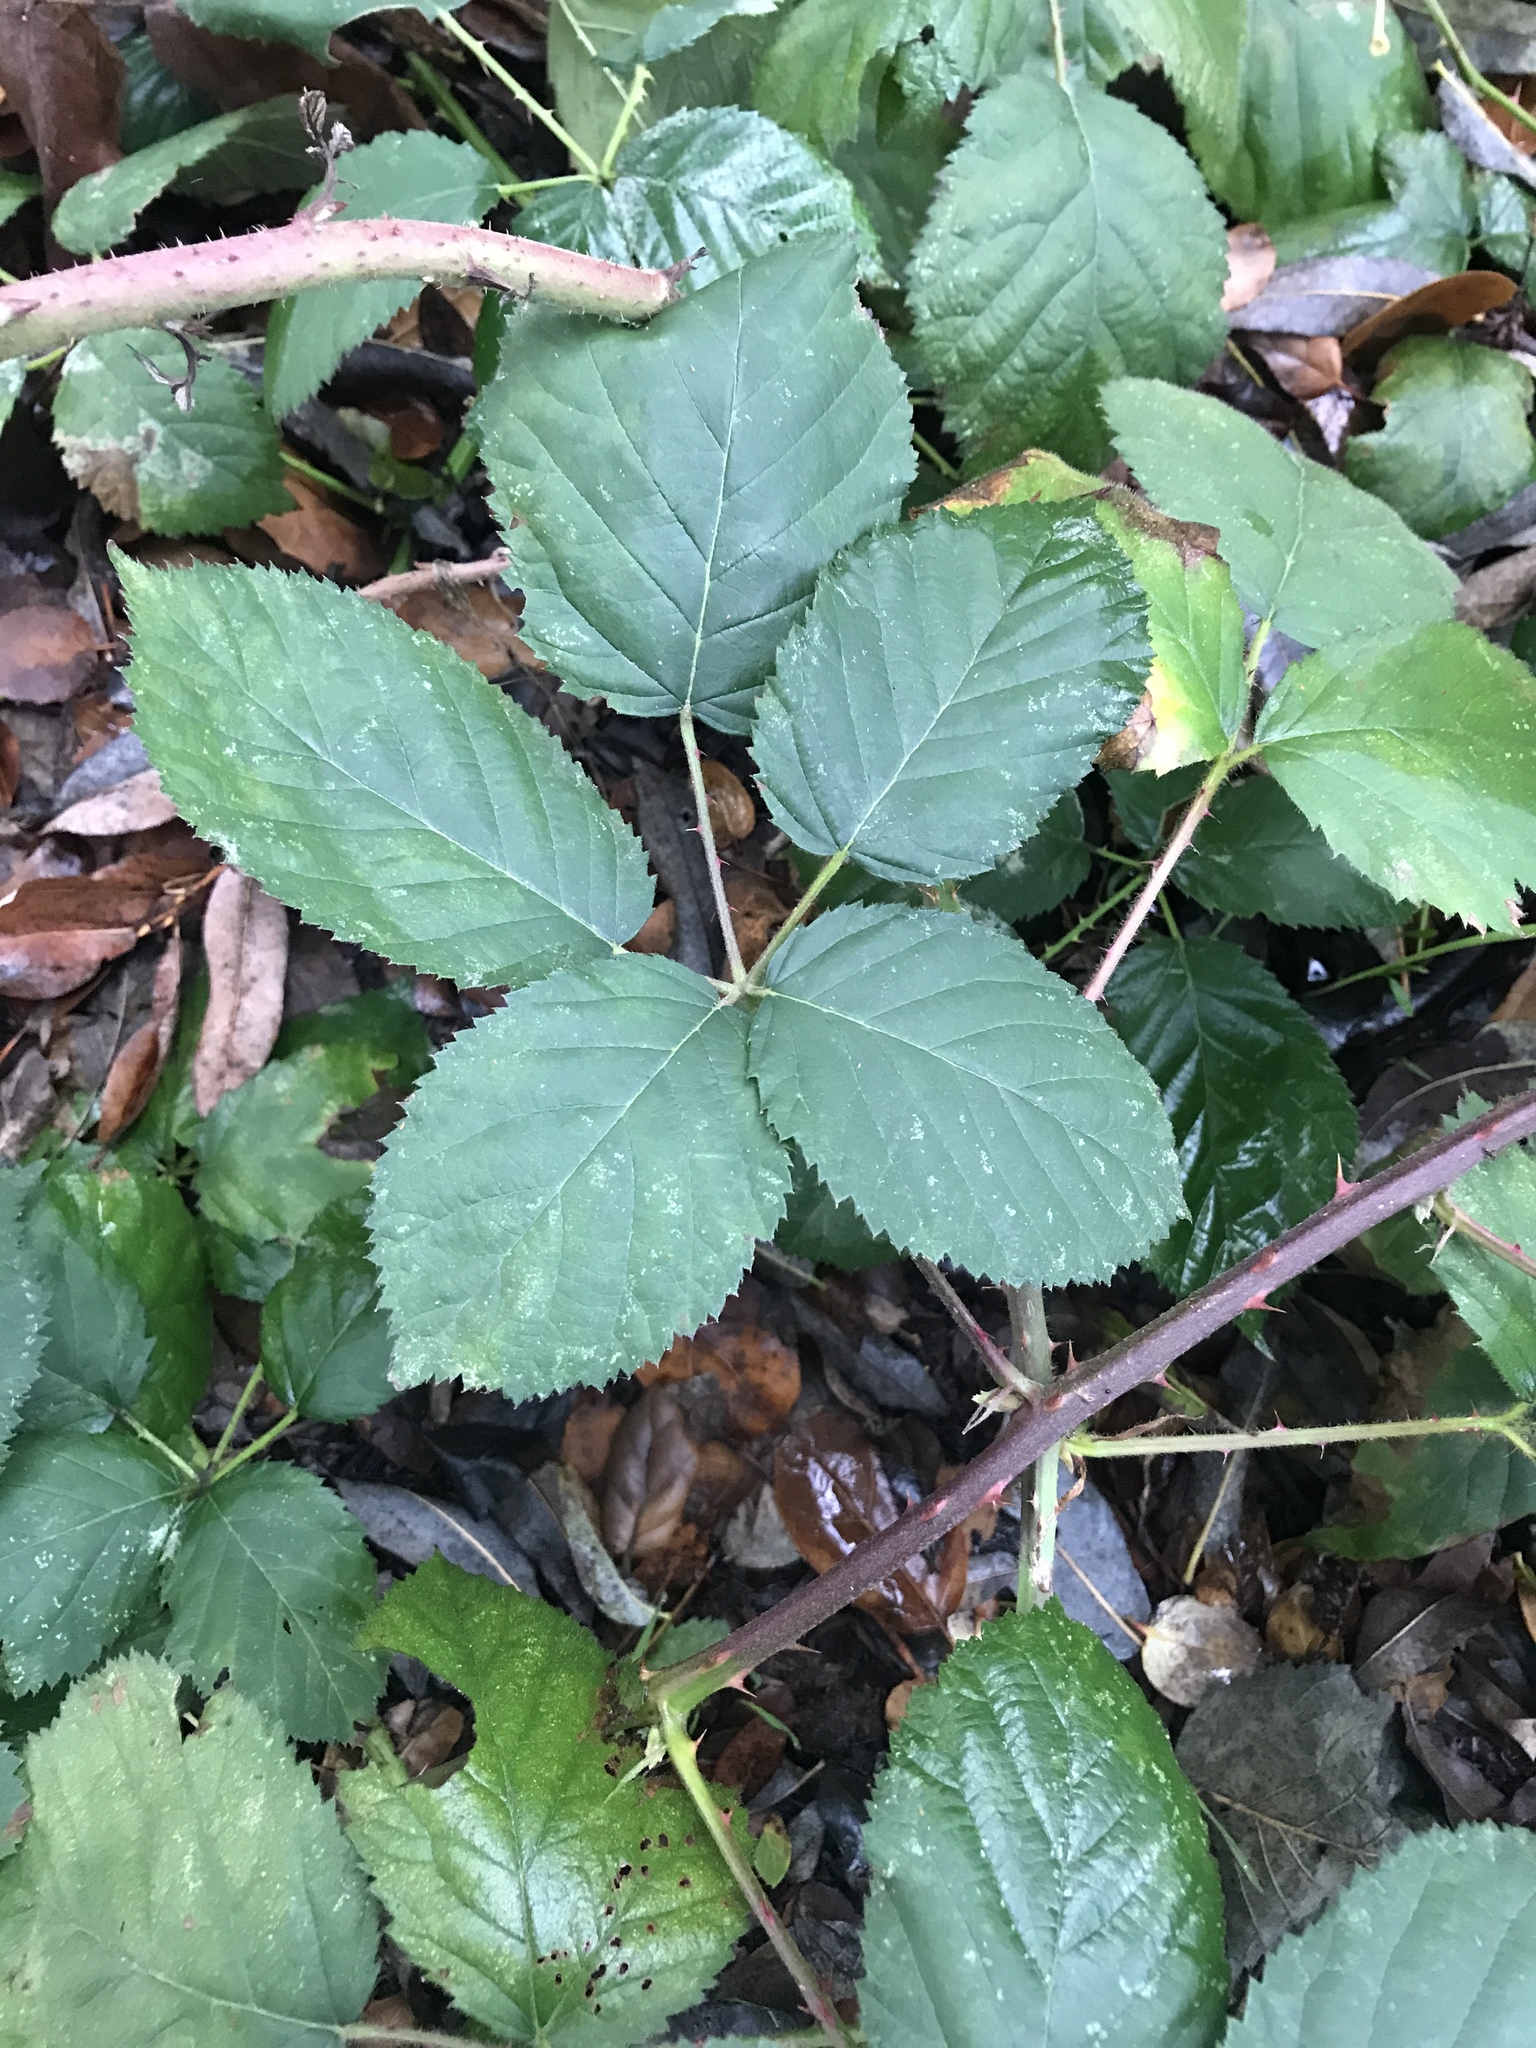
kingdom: Plantae
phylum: Tracheophyta
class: Magnoliopsida
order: Rosales
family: Rosaceae
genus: Rubus
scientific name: Rubus armeniacus
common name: Himalayan blackberry
